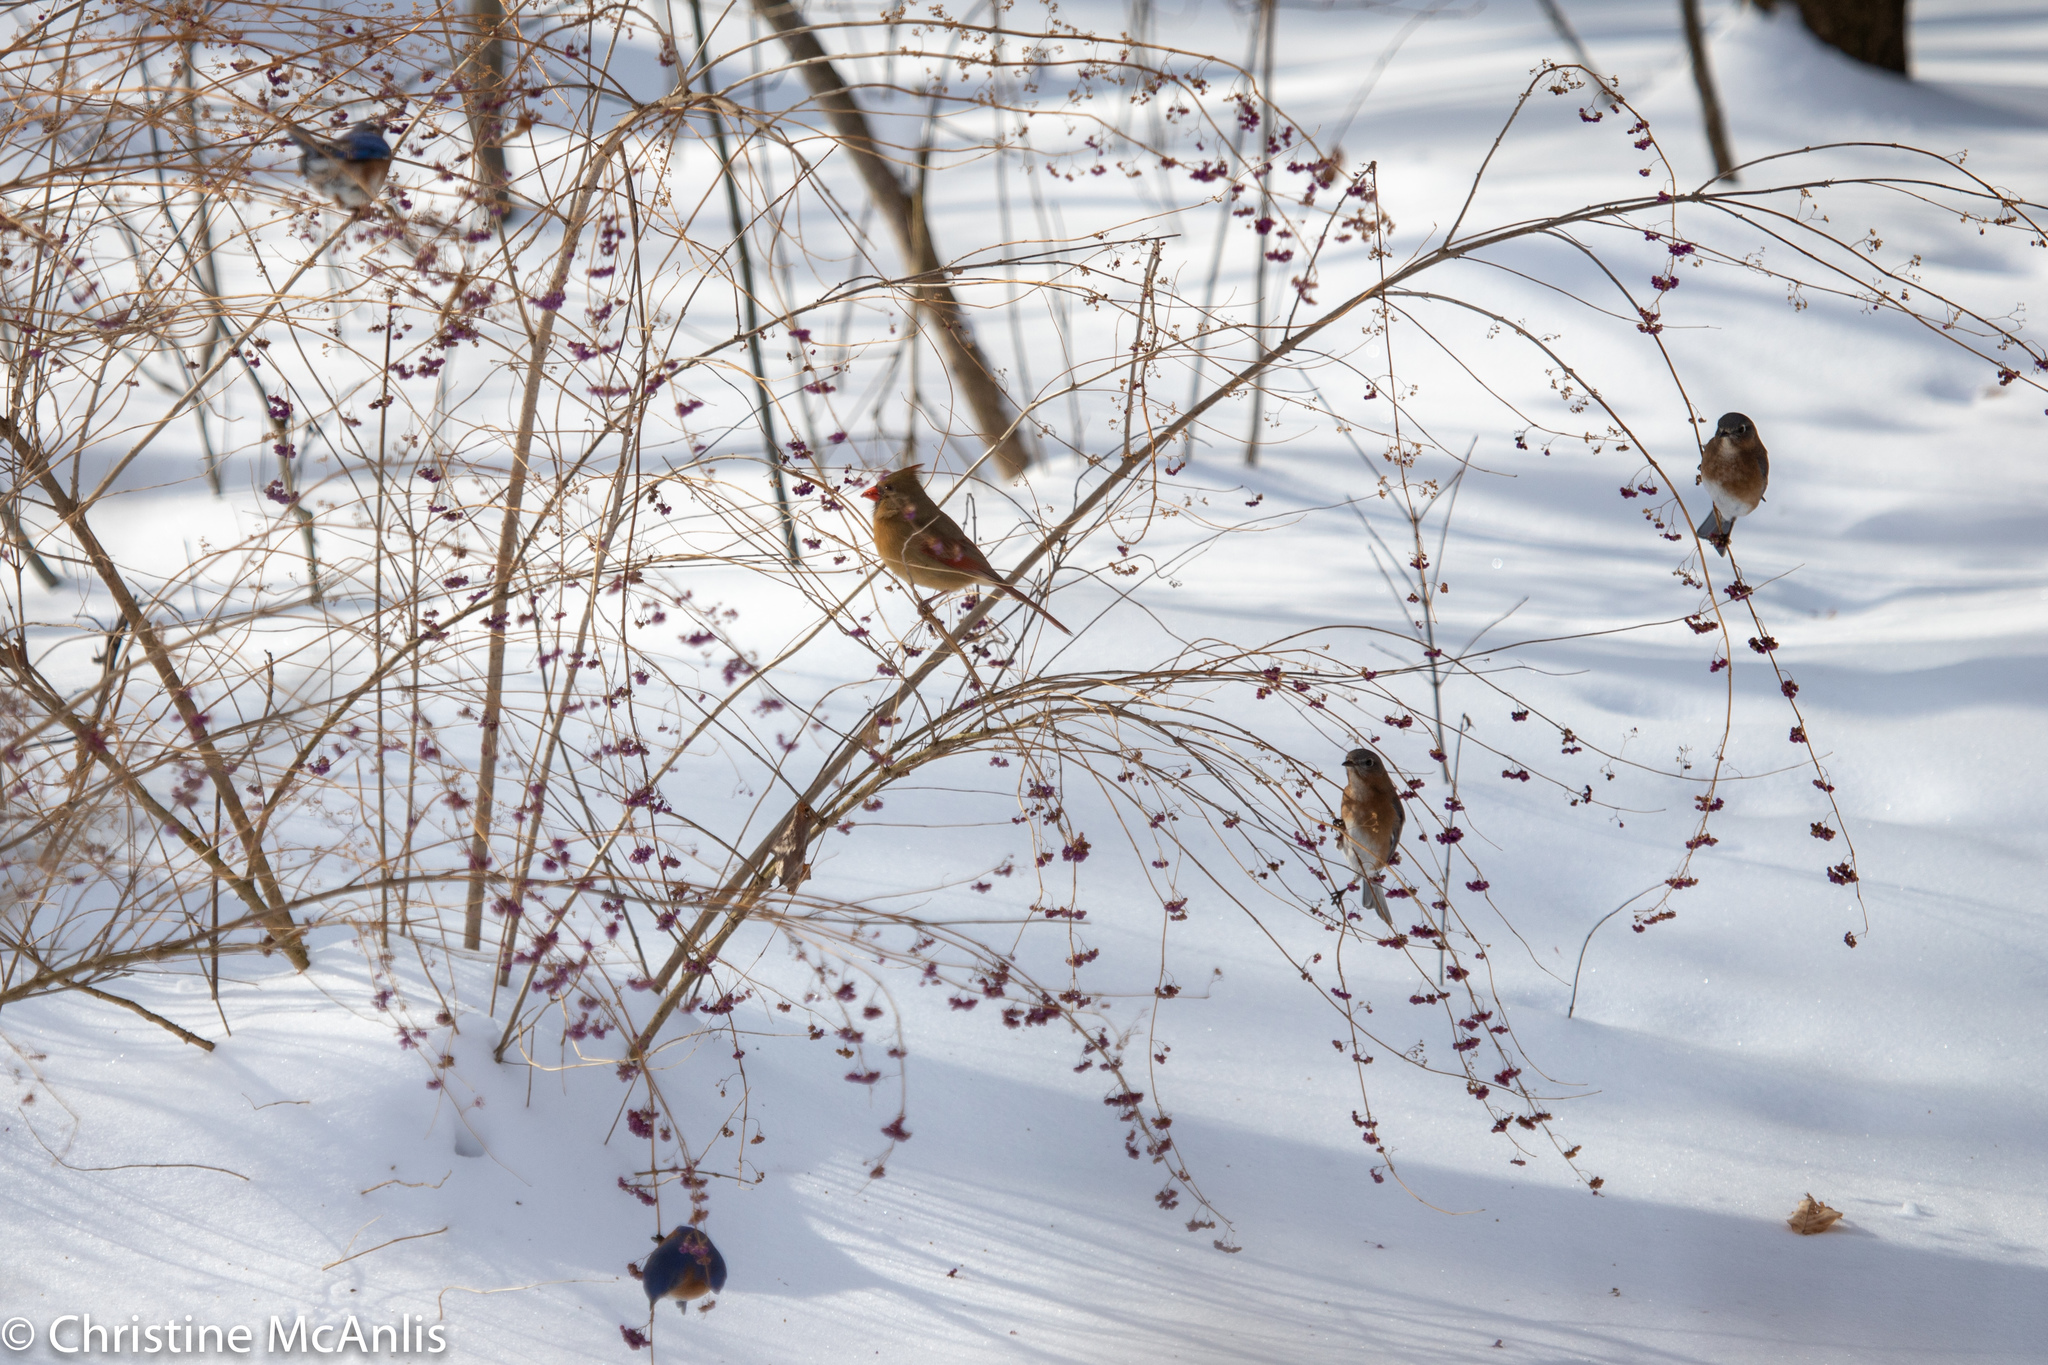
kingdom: Animalia
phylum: Chordata
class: Aves
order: Passeriformes
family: Cardinalidae
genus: Cardinalis
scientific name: Cardinalis cardinalis
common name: Northern cardinal
